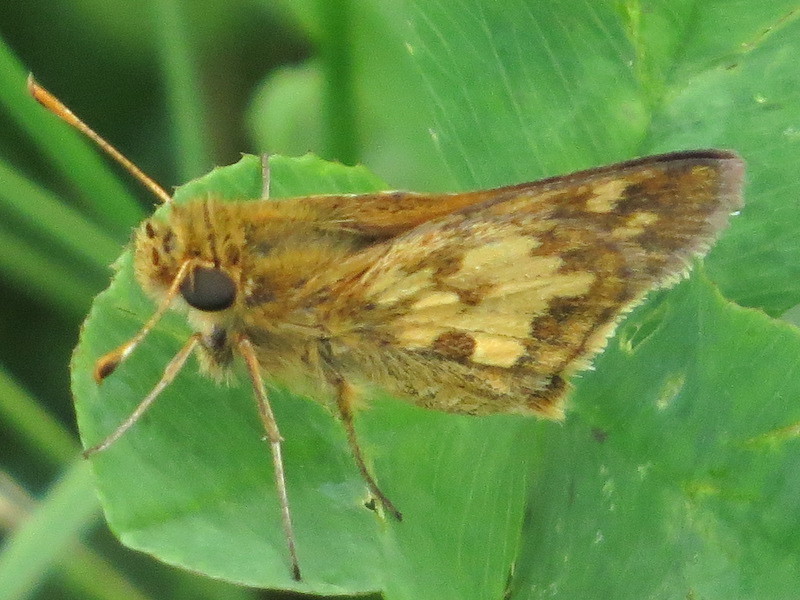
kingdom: Animalia
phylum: Arthropoda
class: Insecta
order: Lepidoptera
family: Hesperiidae
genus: Polites
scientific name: Polites coras
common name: Peck's skipper
